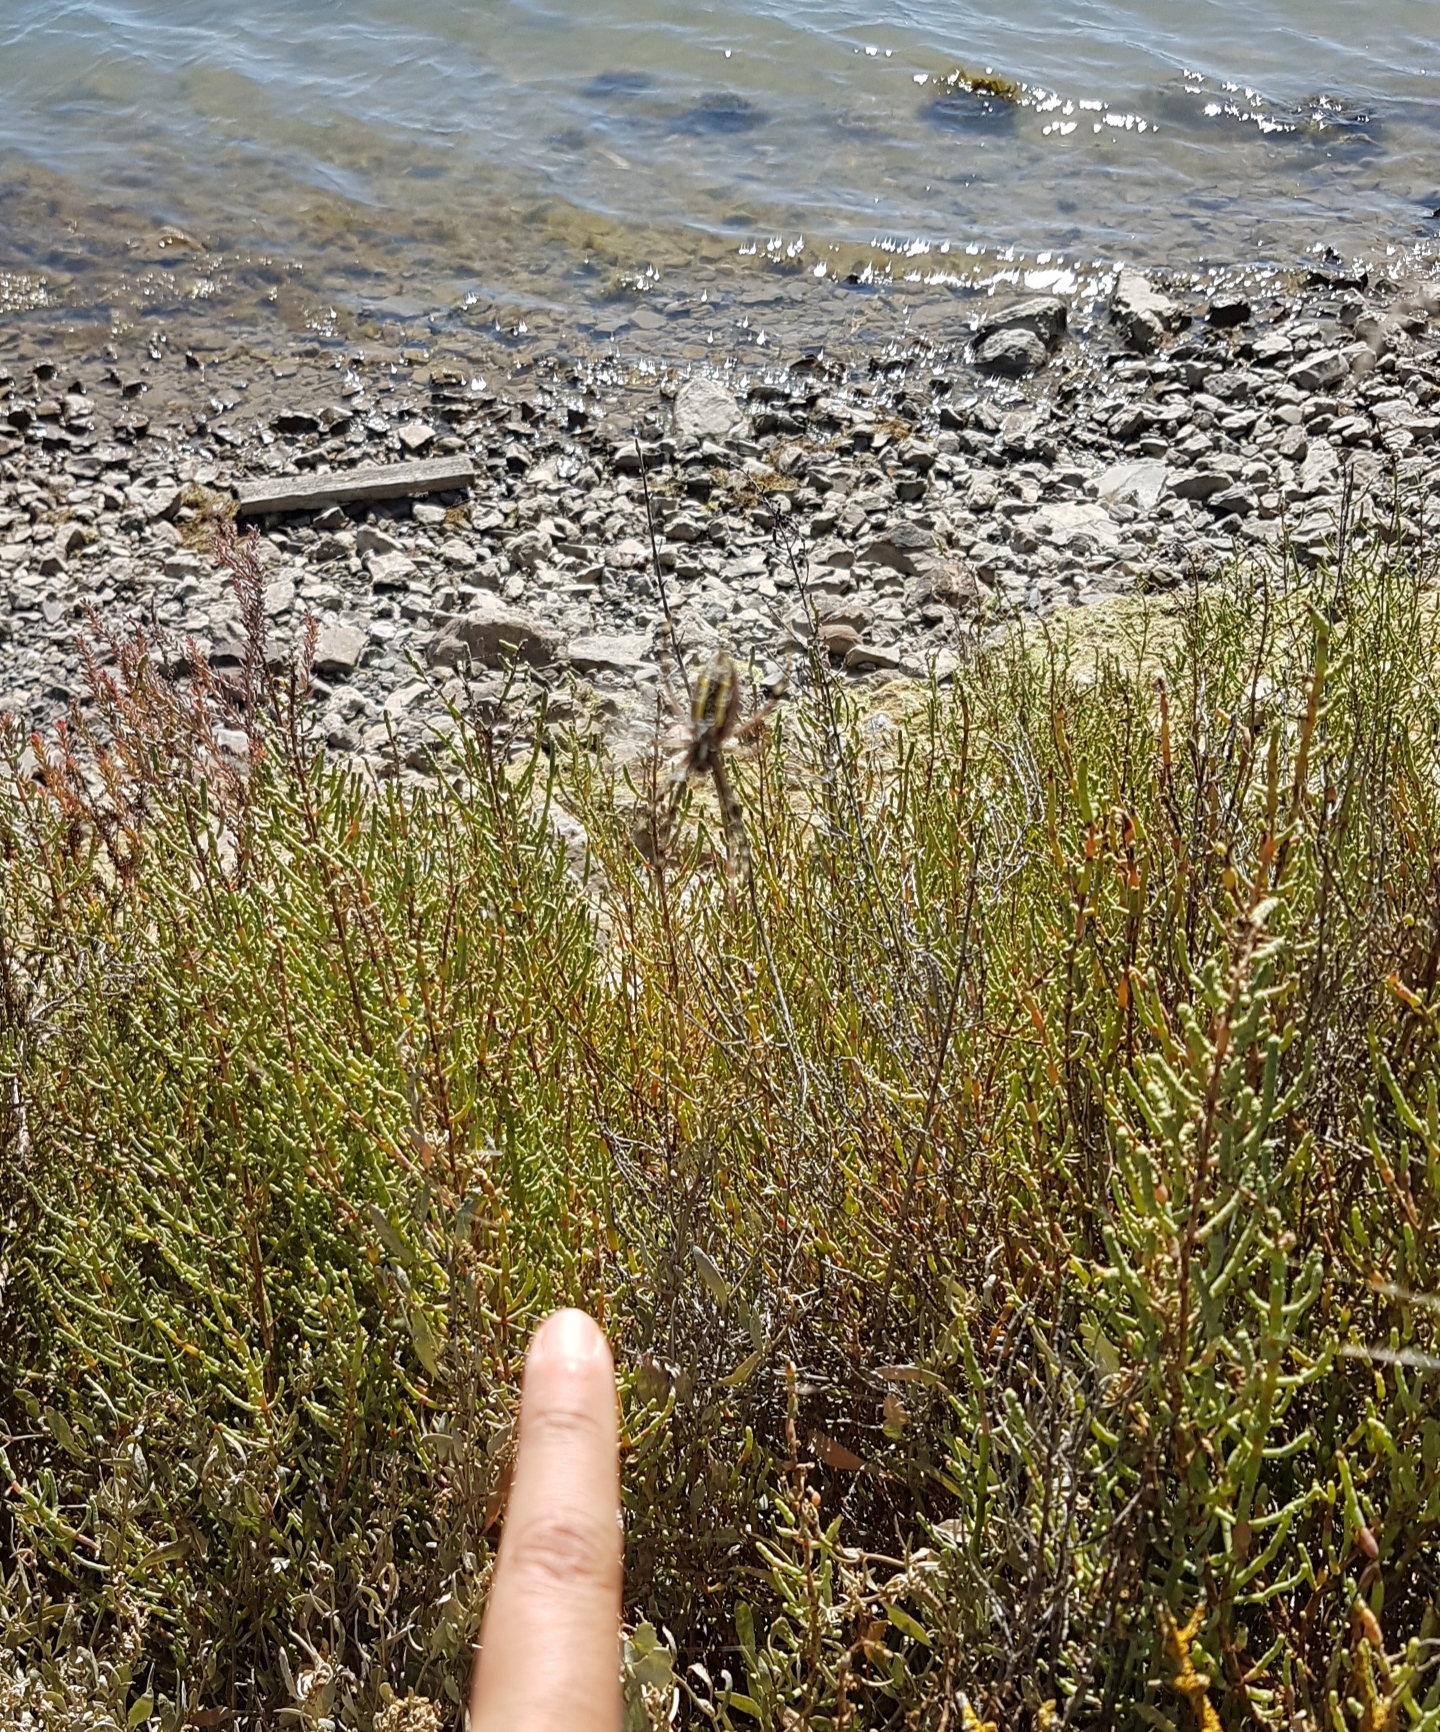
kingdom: Animalia
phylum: Arthropoda
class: Arachnida
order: Araneae
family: Araneidae
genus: Argiope
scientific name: Argiope bruennichi
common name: Wasp spider
